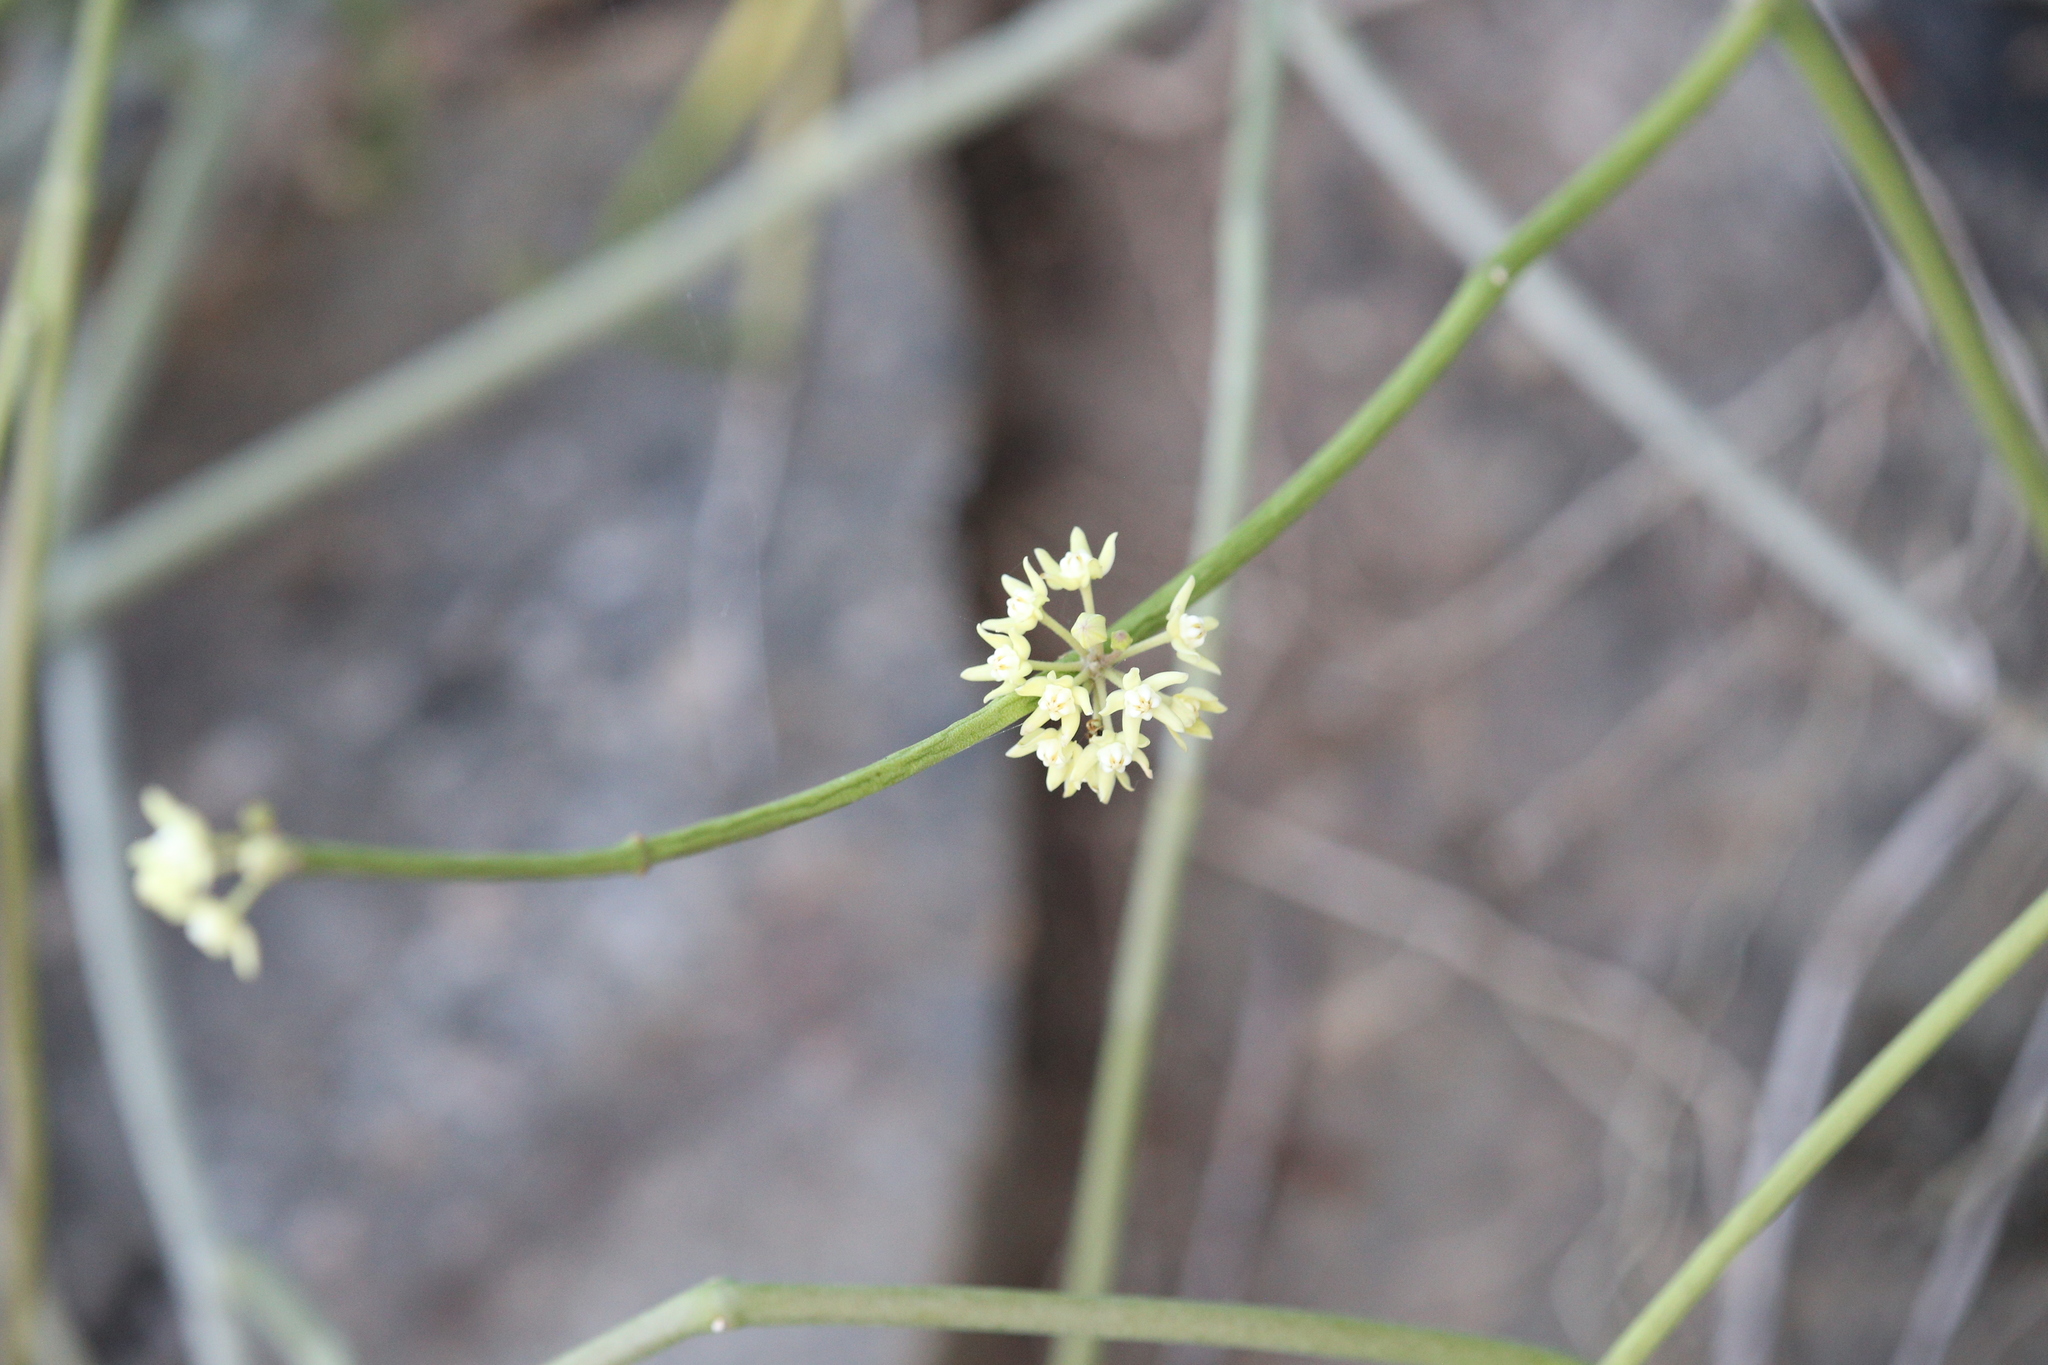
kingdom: Plantae
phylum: Tracheophyta
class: Magnoliopsida
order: Gentianales
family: Apocynaceae
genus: Cynanchum
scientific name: Cynanchum viminale
